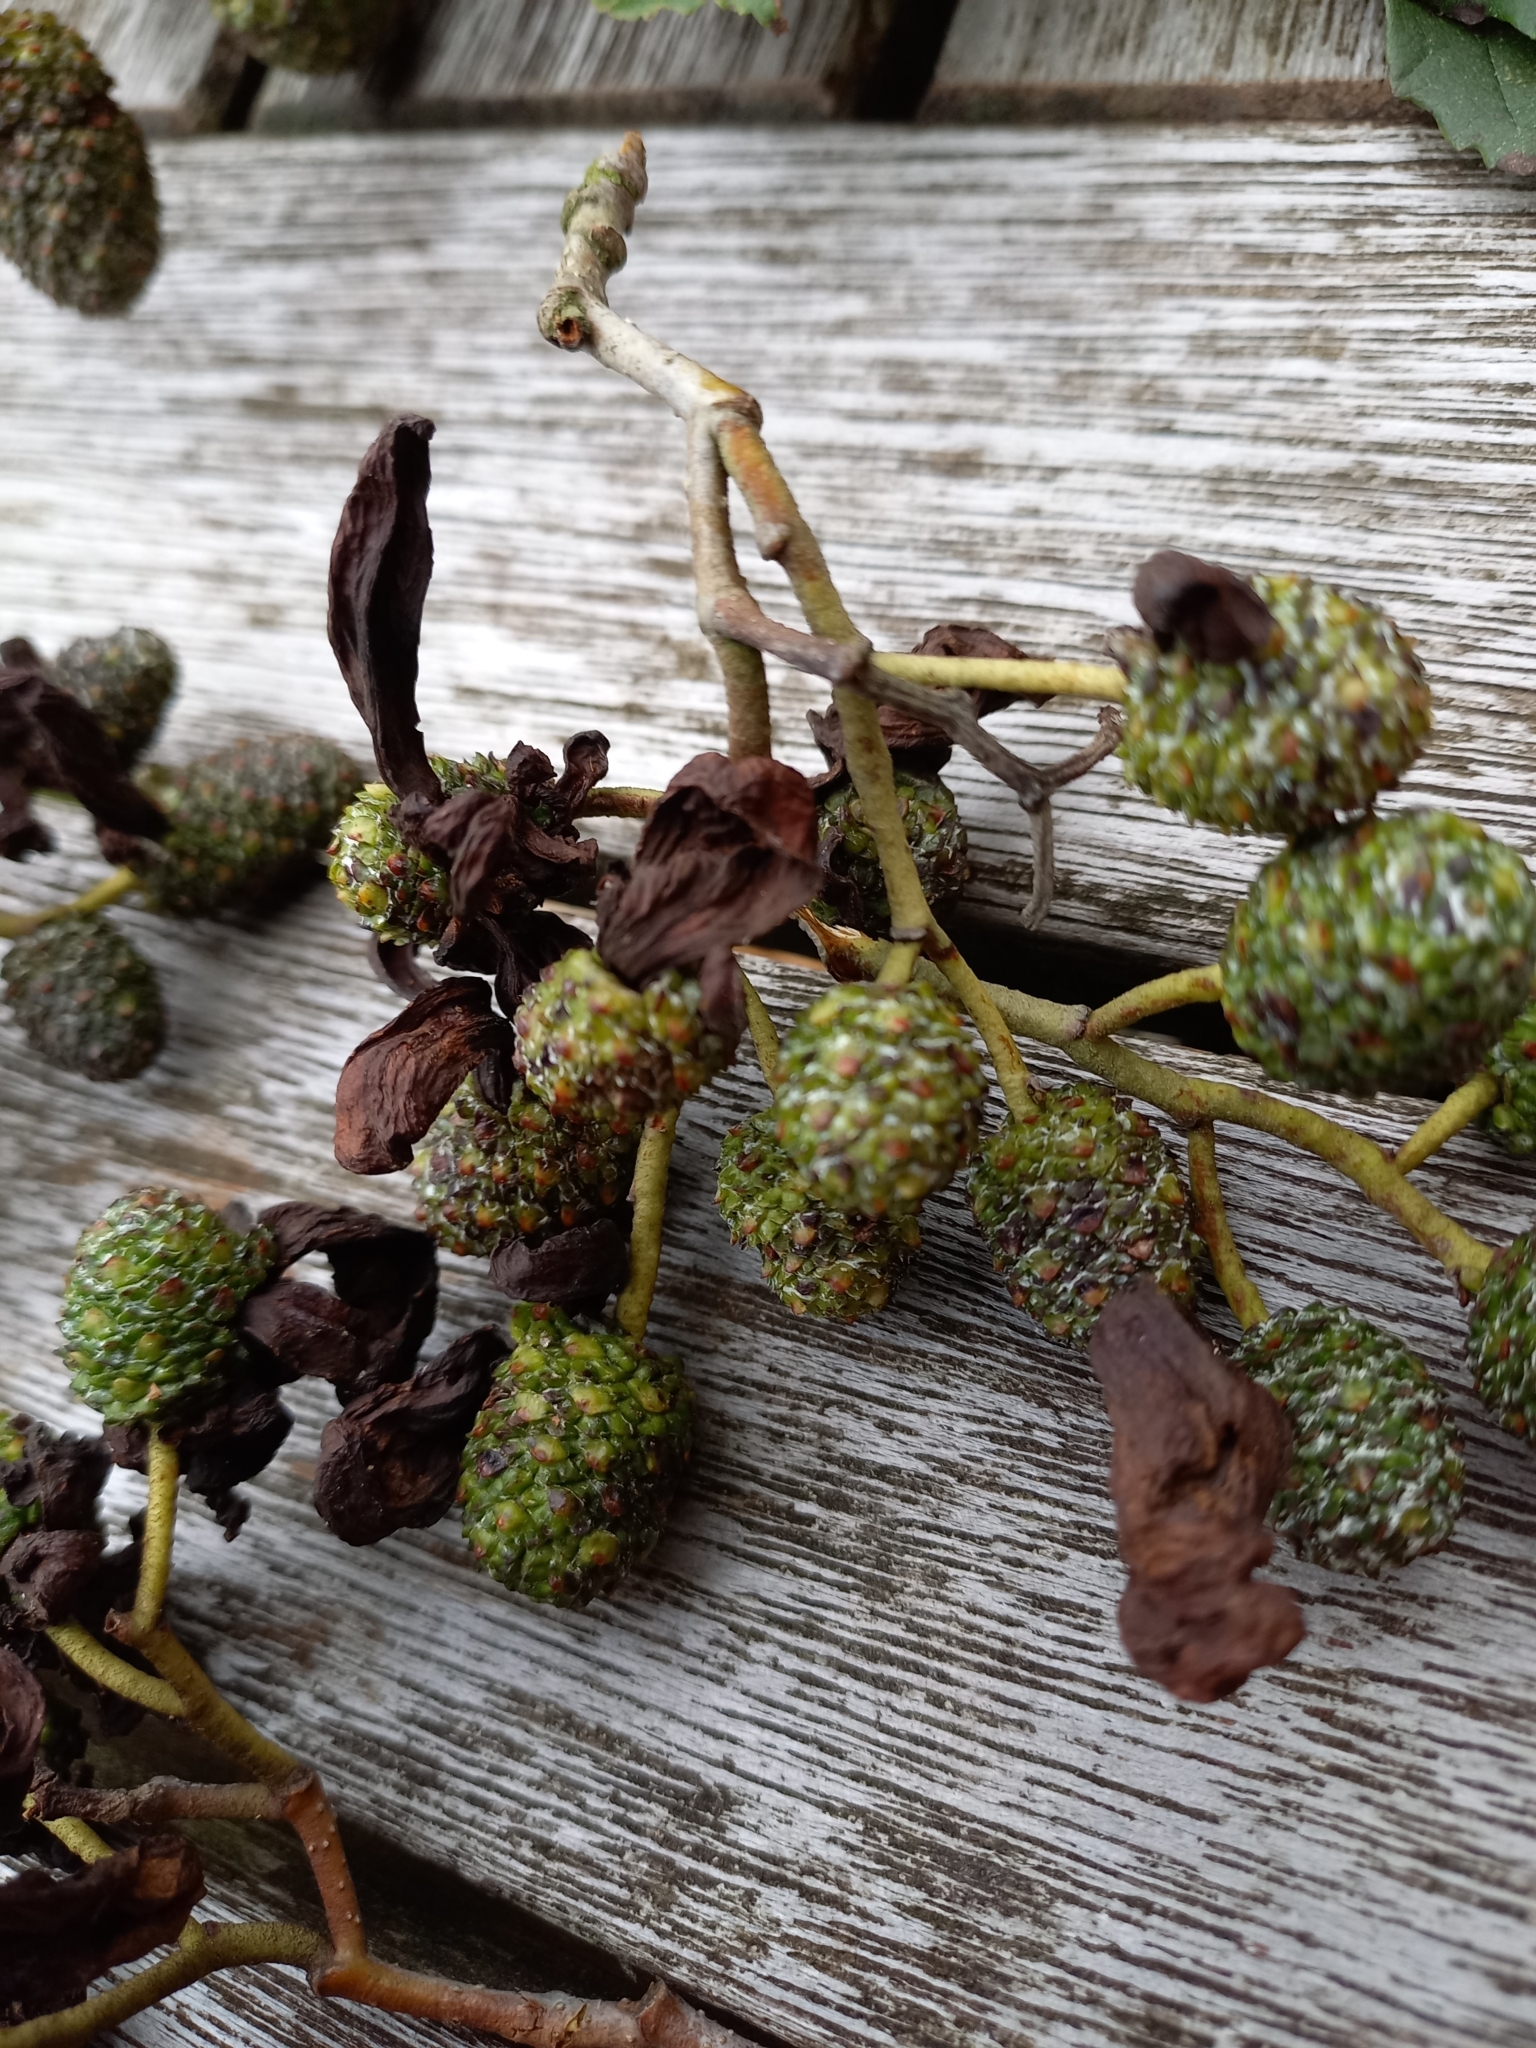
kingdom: Fungi
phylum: Ascomycota
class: Taphrinomycetes
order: Taphrinales
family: Taphrinaceae
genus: Taphrina
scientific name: Taphrina alni
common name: Alder tongue
